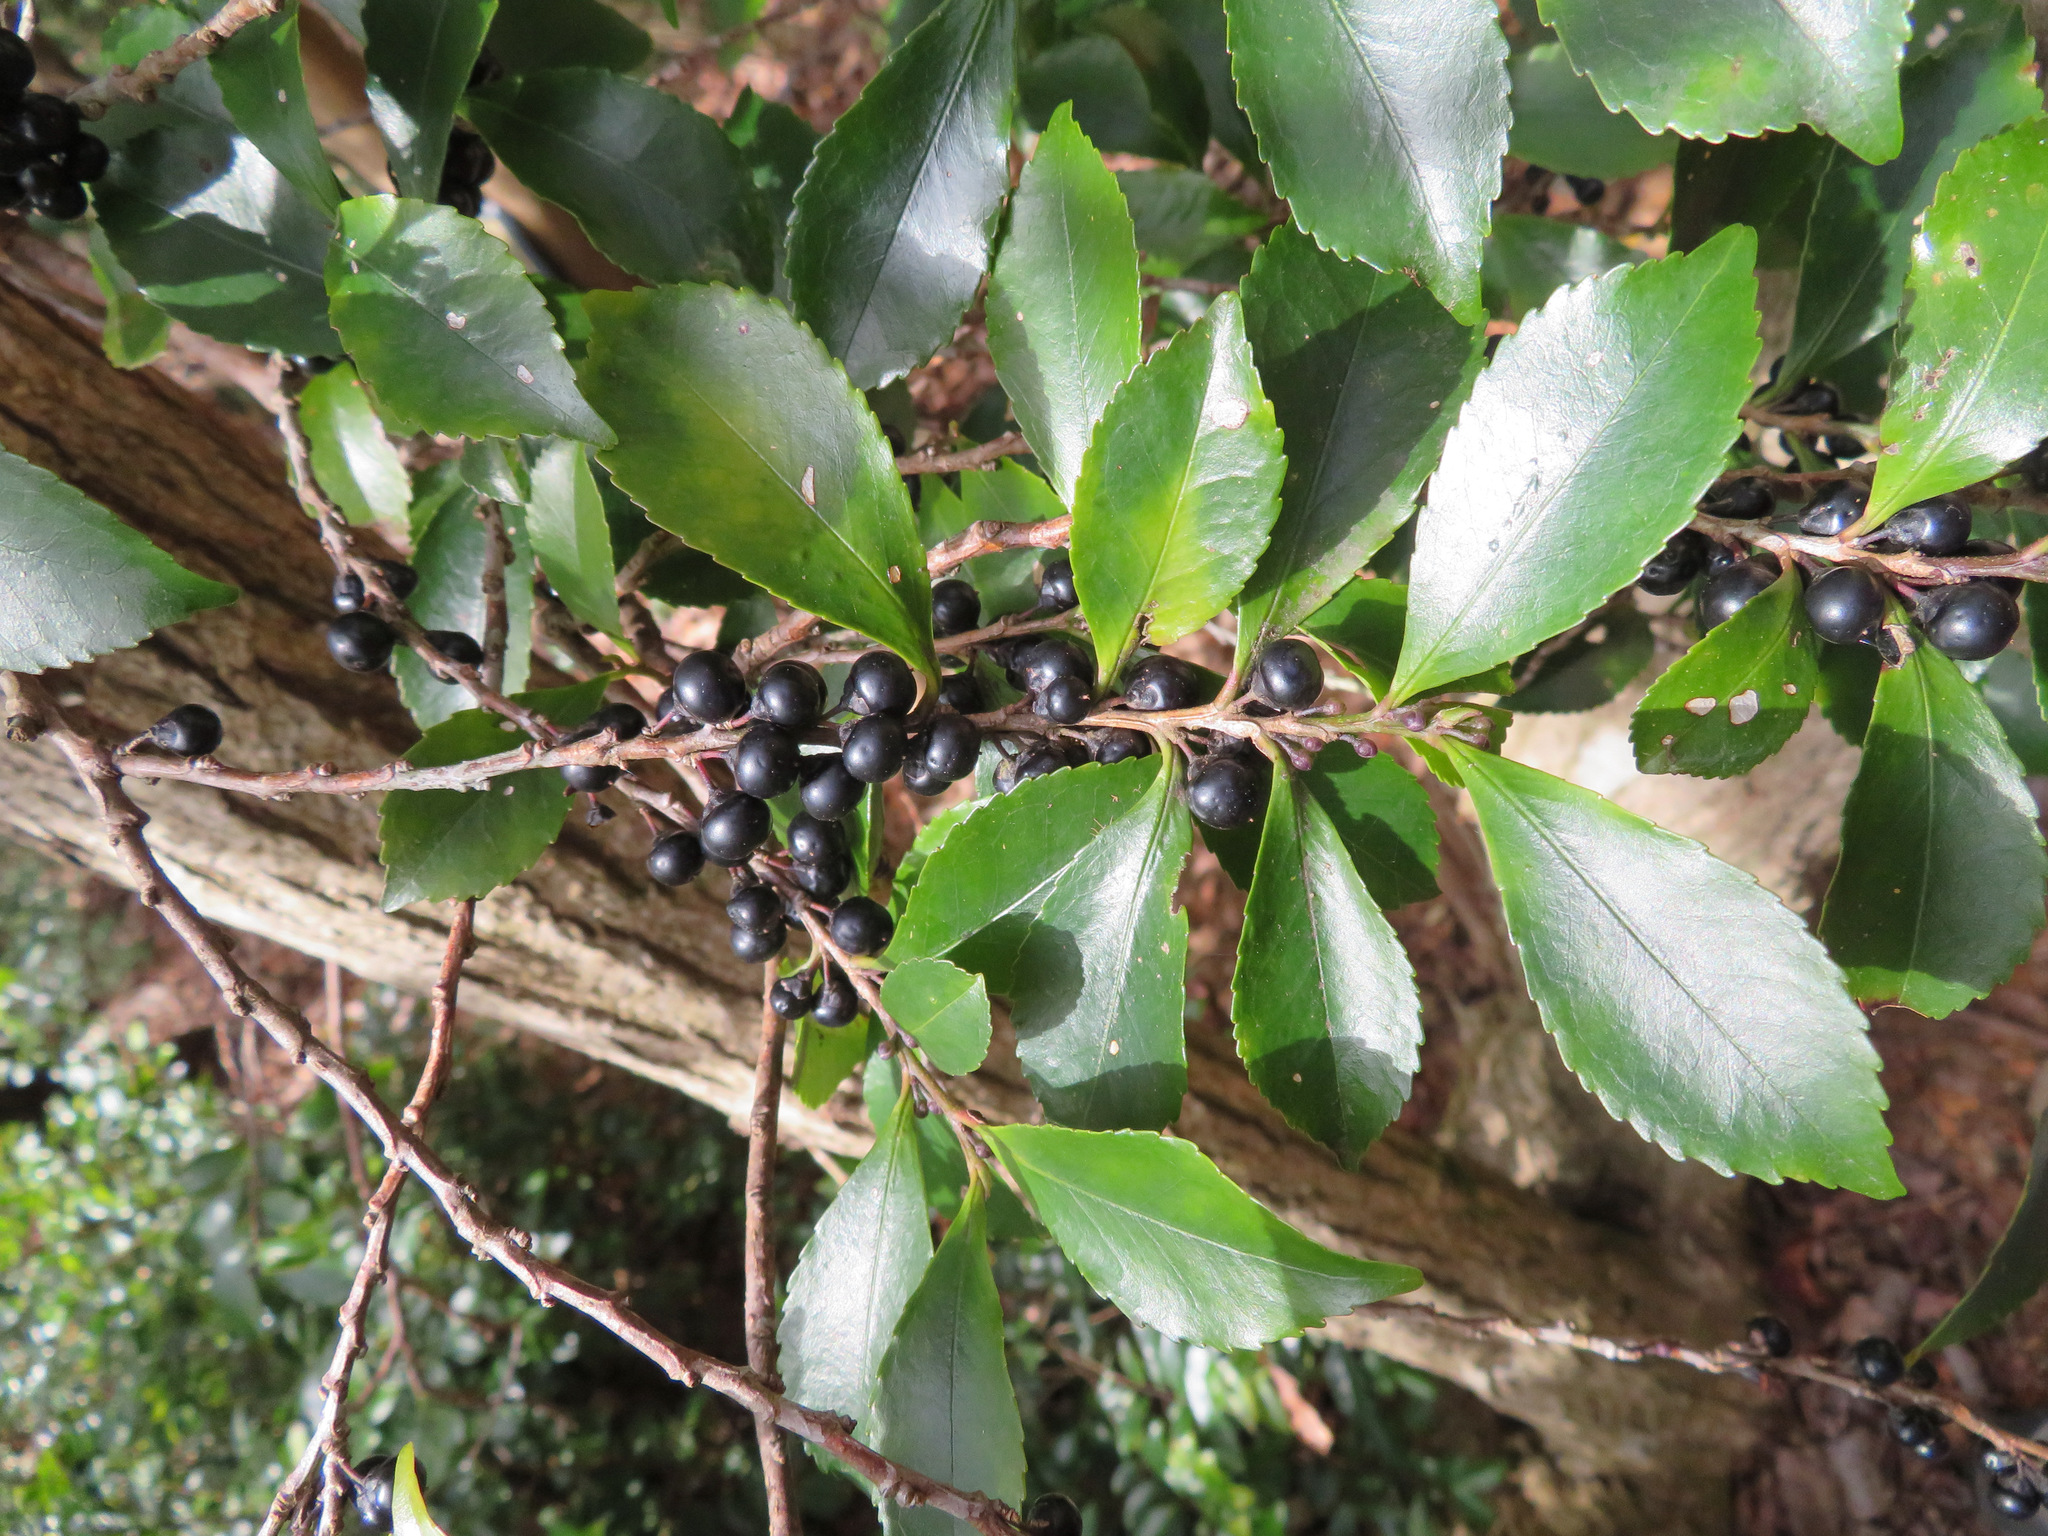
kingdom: Plantae
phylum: Tracheophyta
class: Magnoliopsida
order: Ericales
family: Pentaphylacaceae
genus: Eurya
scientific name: Eurya japonica
